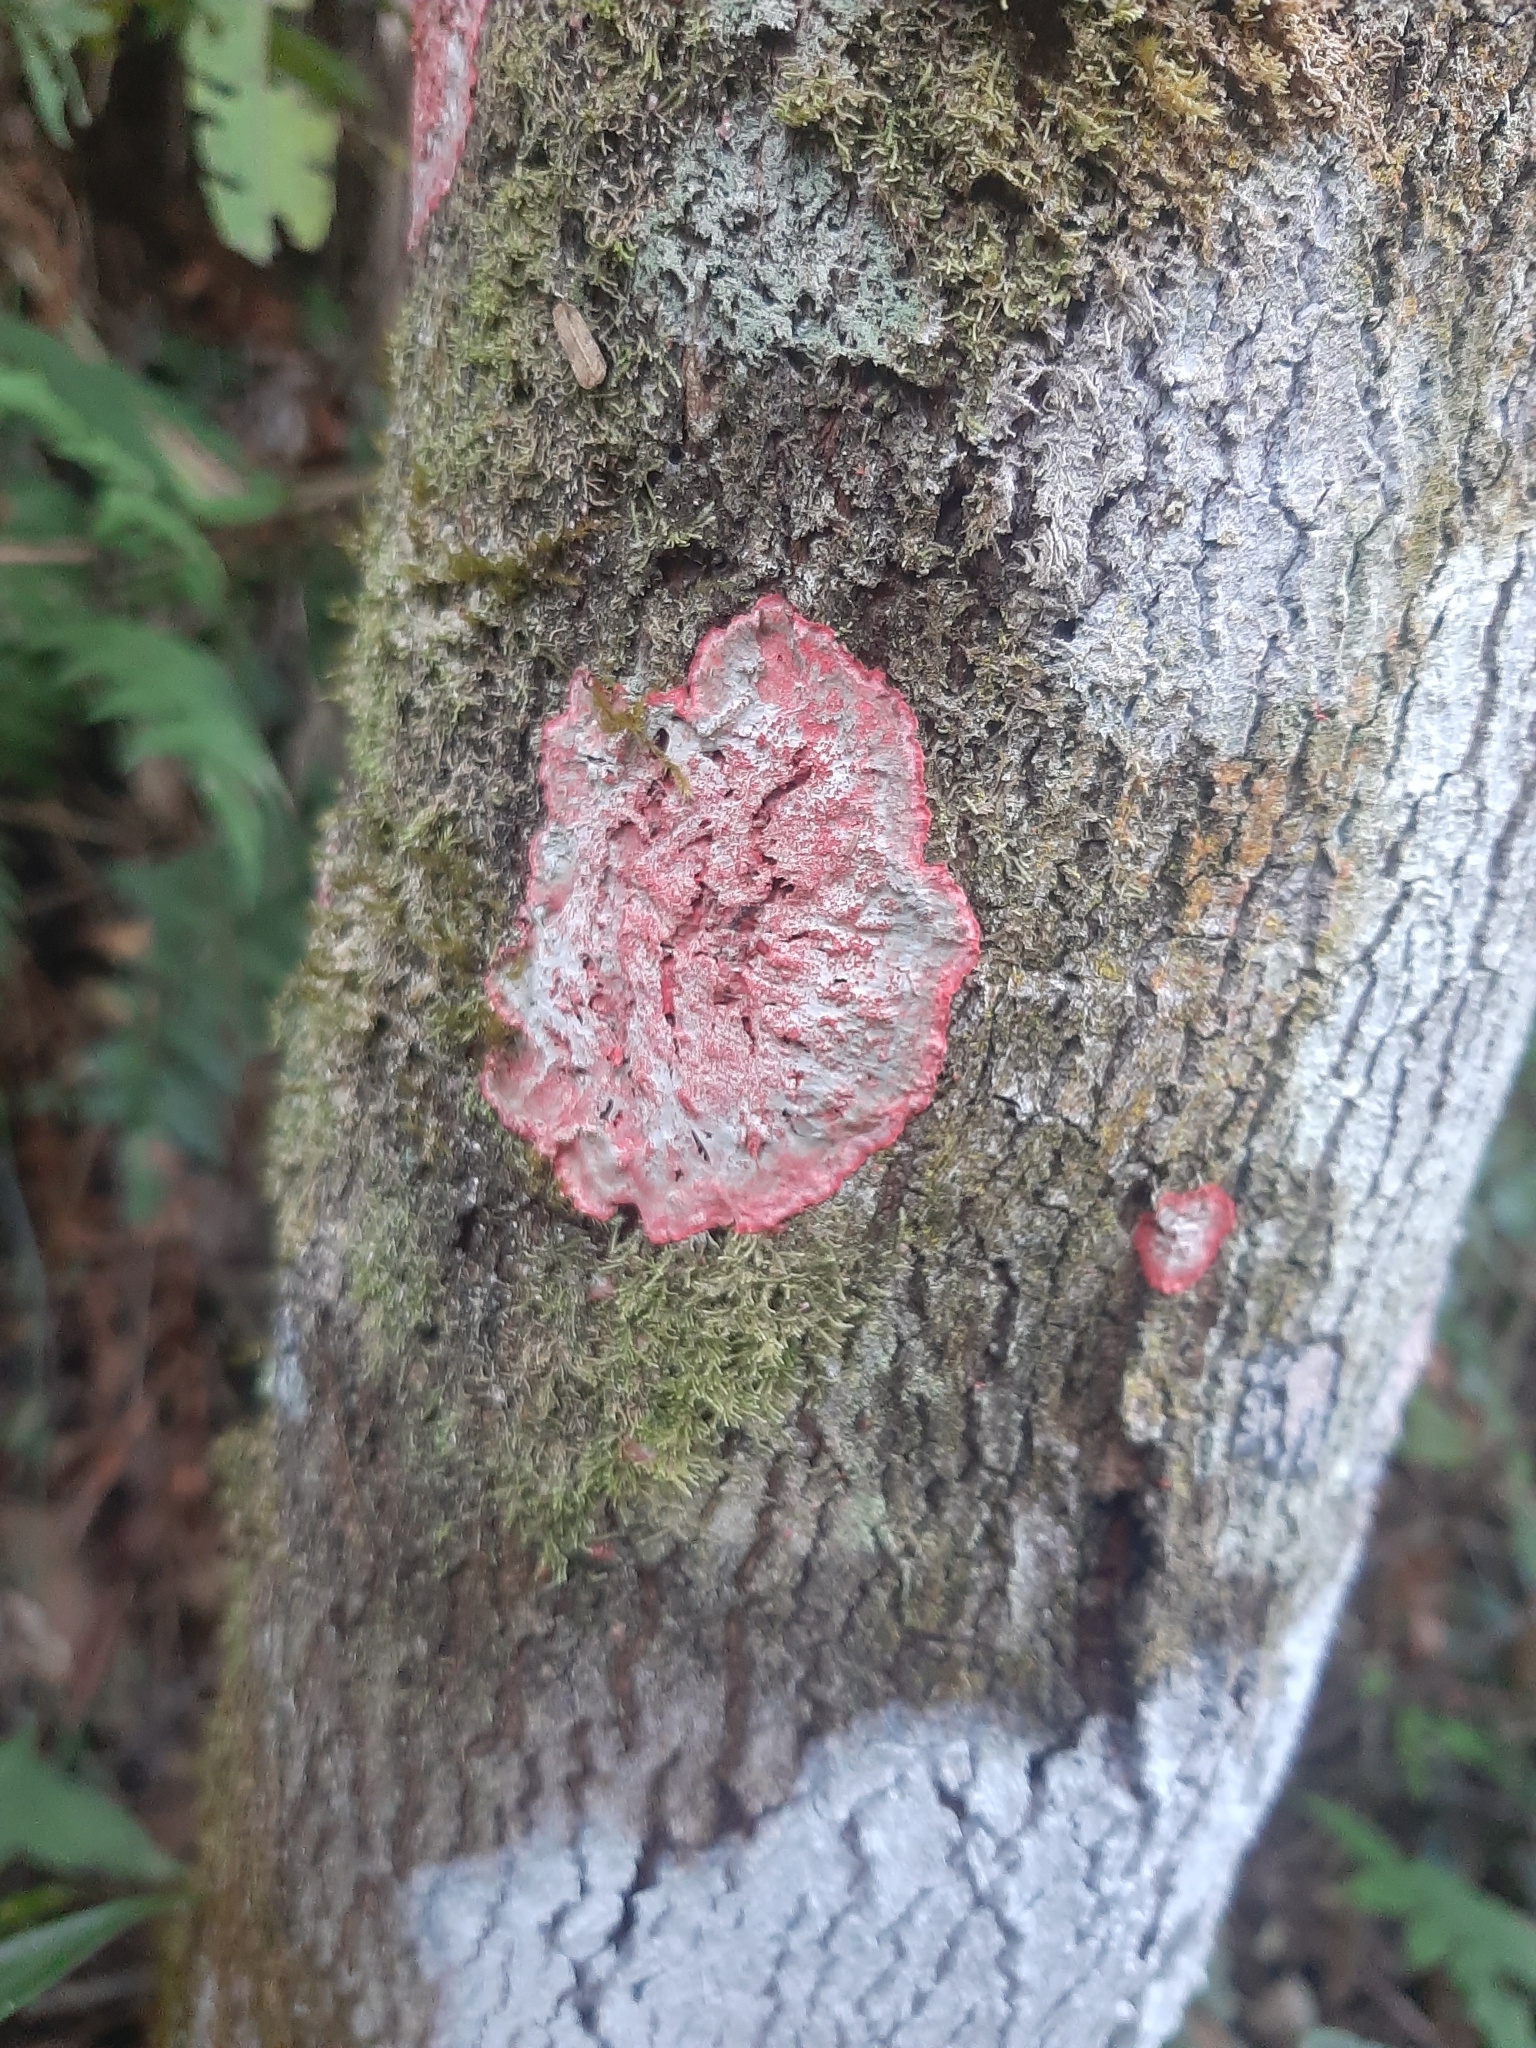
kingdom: Fungi
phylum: Ascomycota
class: Arthoniomycetes
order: Arthoniales
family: Arthoniaceae
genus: Herpothallon
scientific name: Herpothallon rubrocinctum
